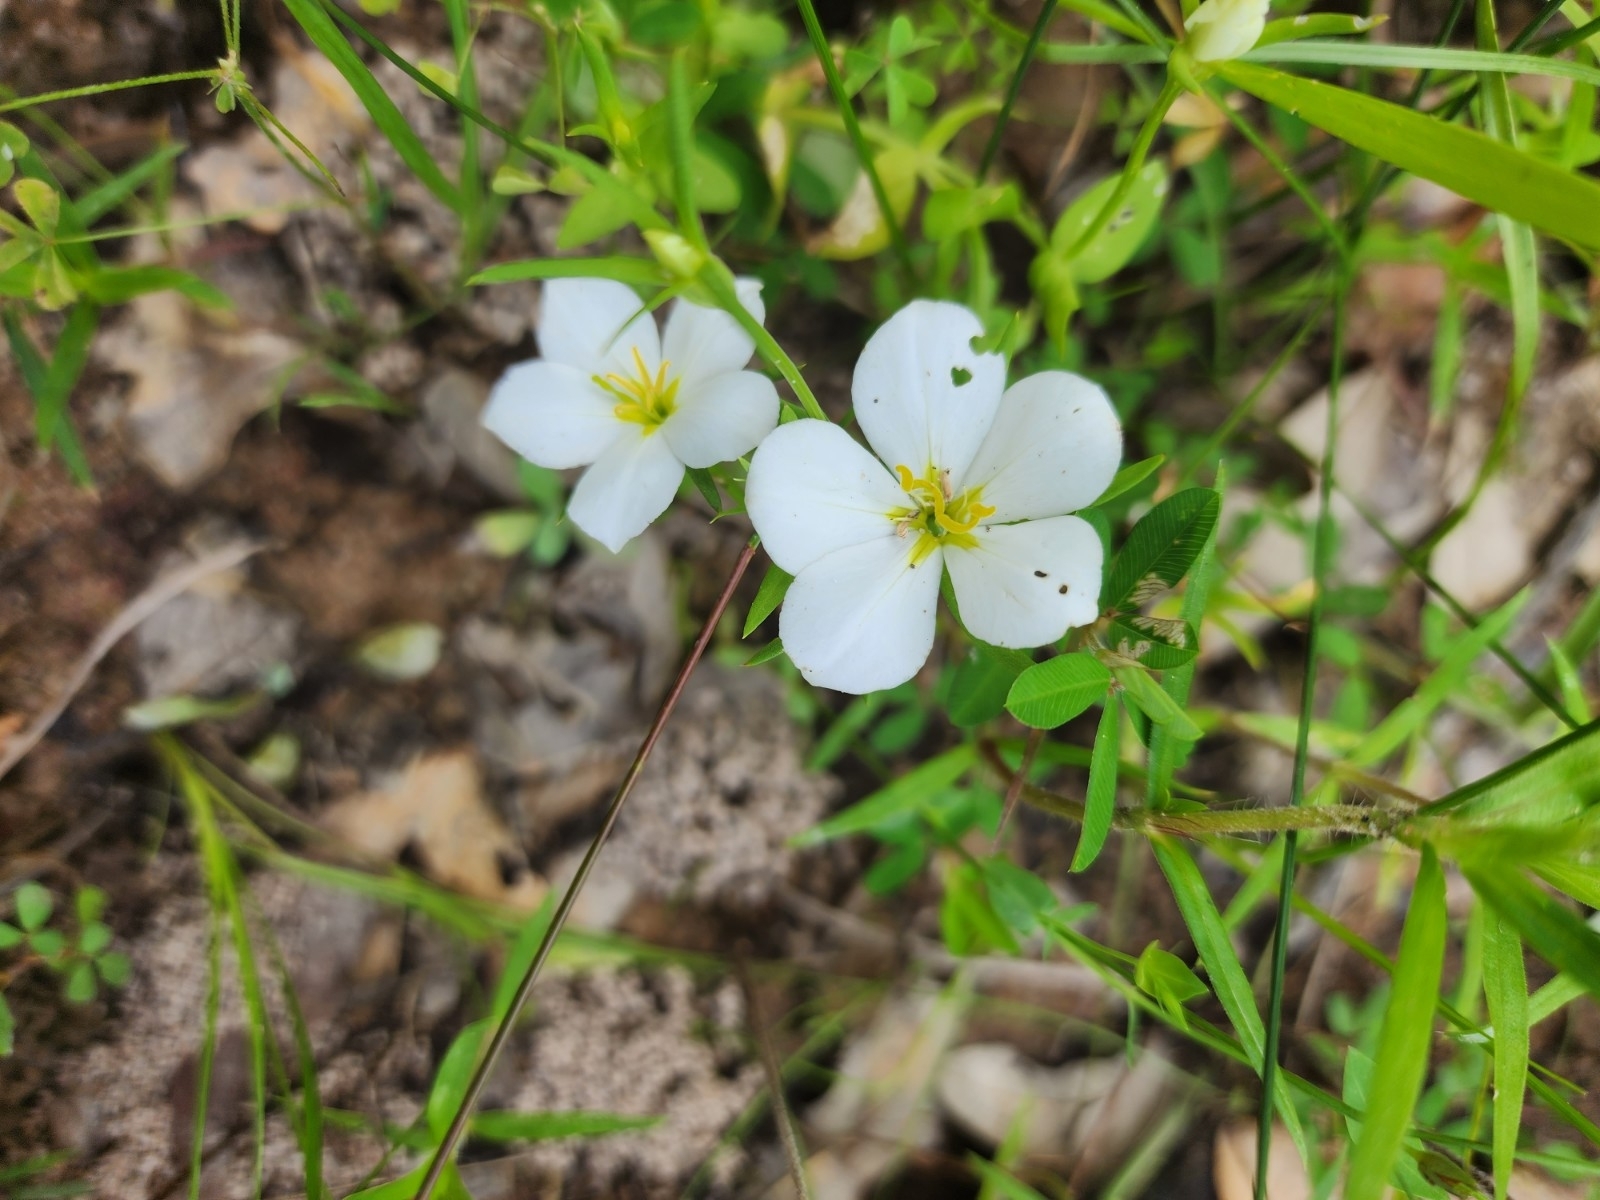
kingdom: Plantae
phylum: Tracheophyta
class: Magnoliopsida
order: Gentianales
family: Gentianaceae
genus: Sabatia
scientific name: Sabatia campestris
